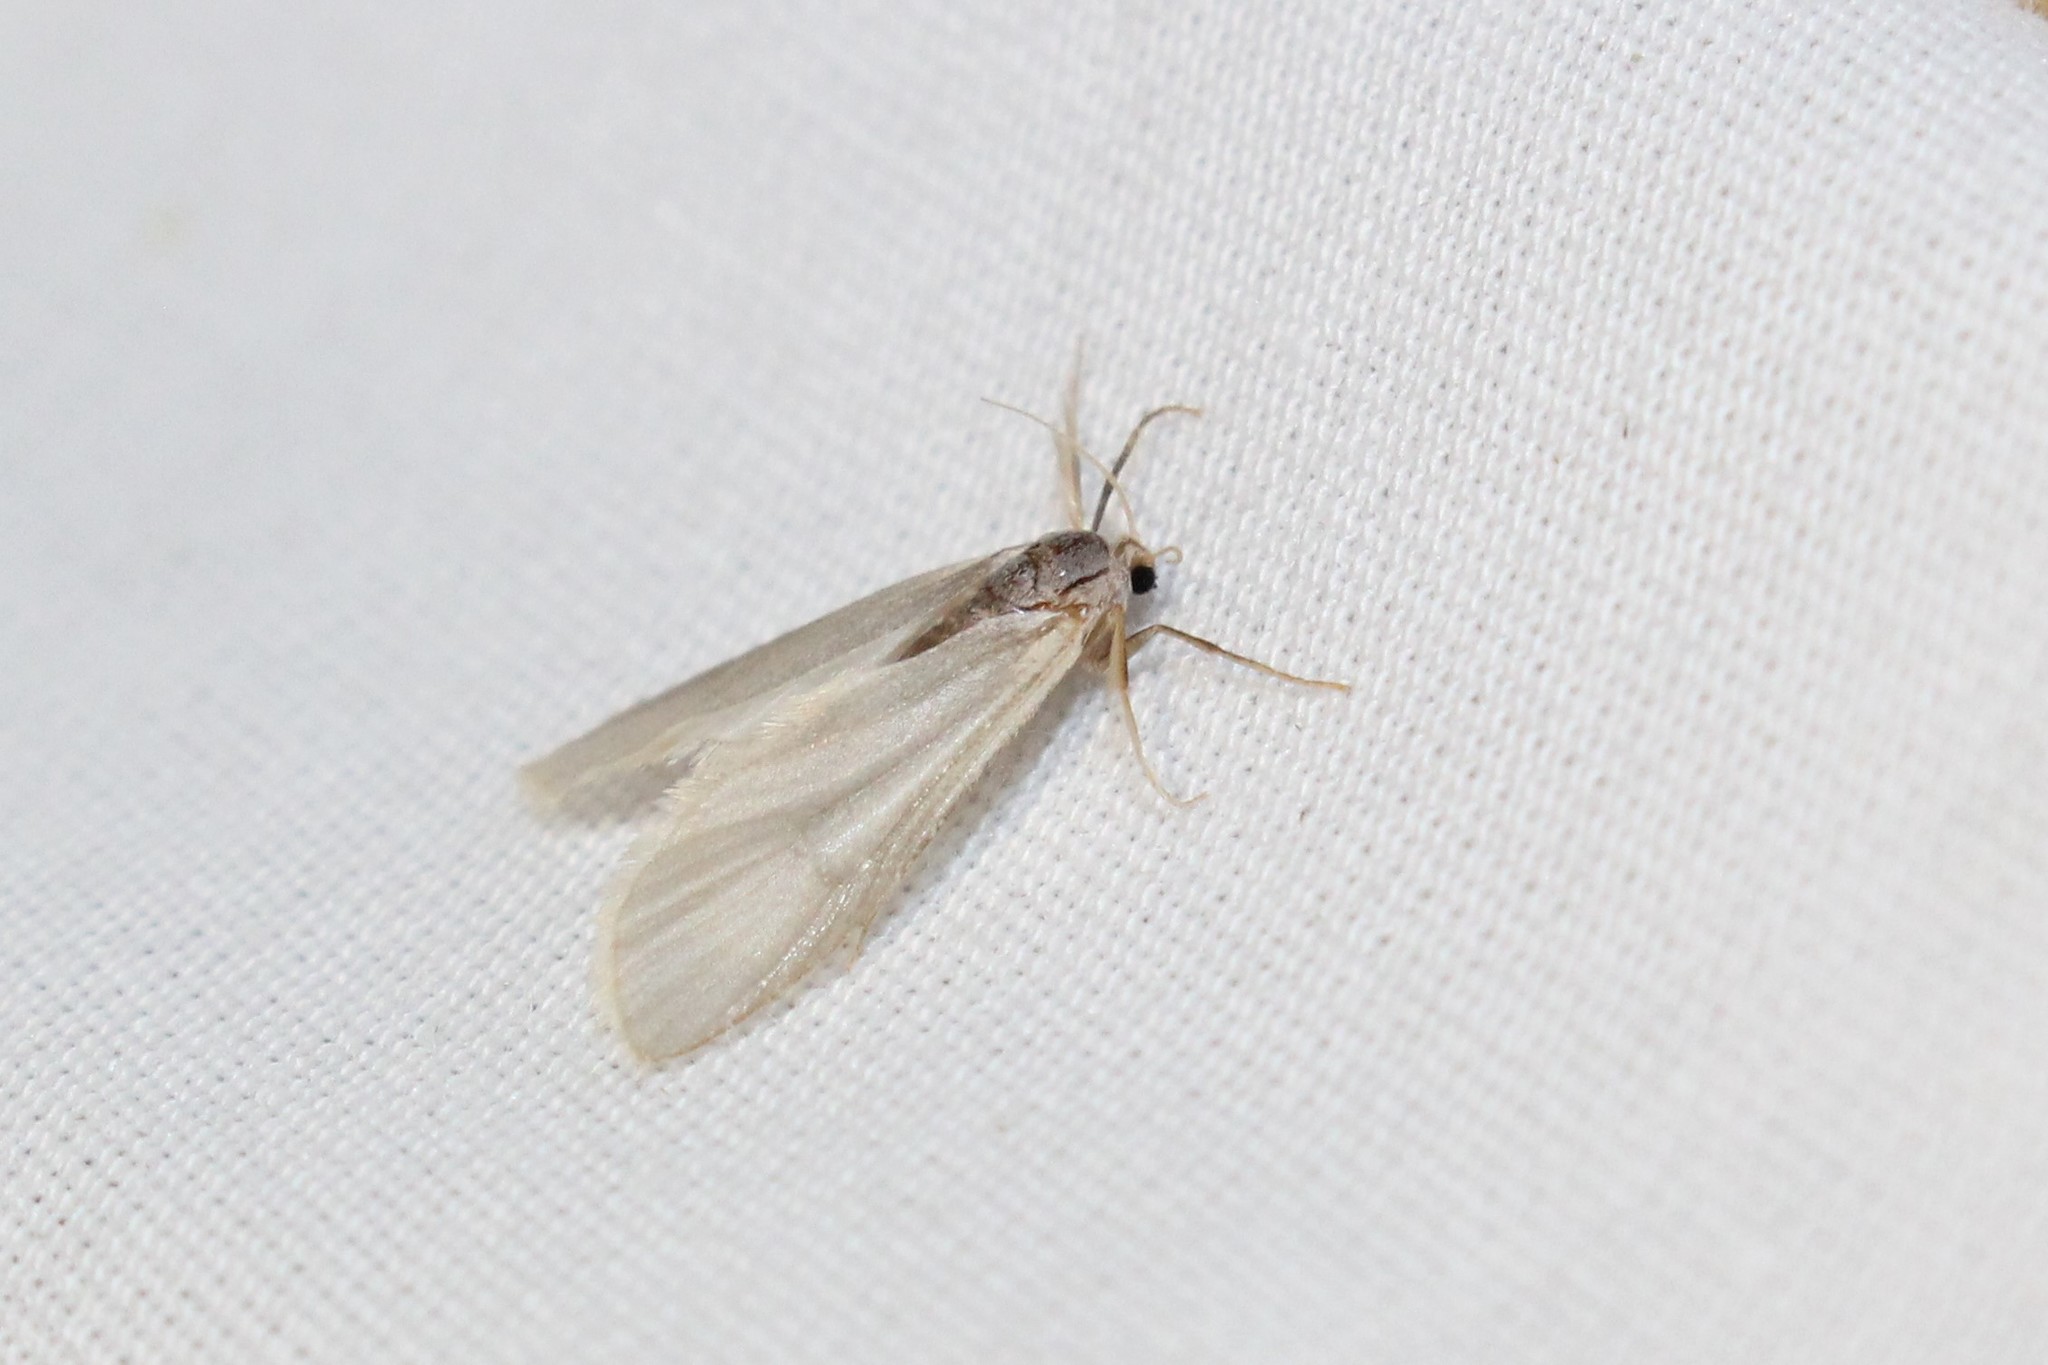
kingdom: Animalia
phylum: Arthropoda
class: Insecta
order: Lepidoptera
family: Crambidae
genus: Acentria
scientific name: Acentria ephemerella
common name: European water moth
